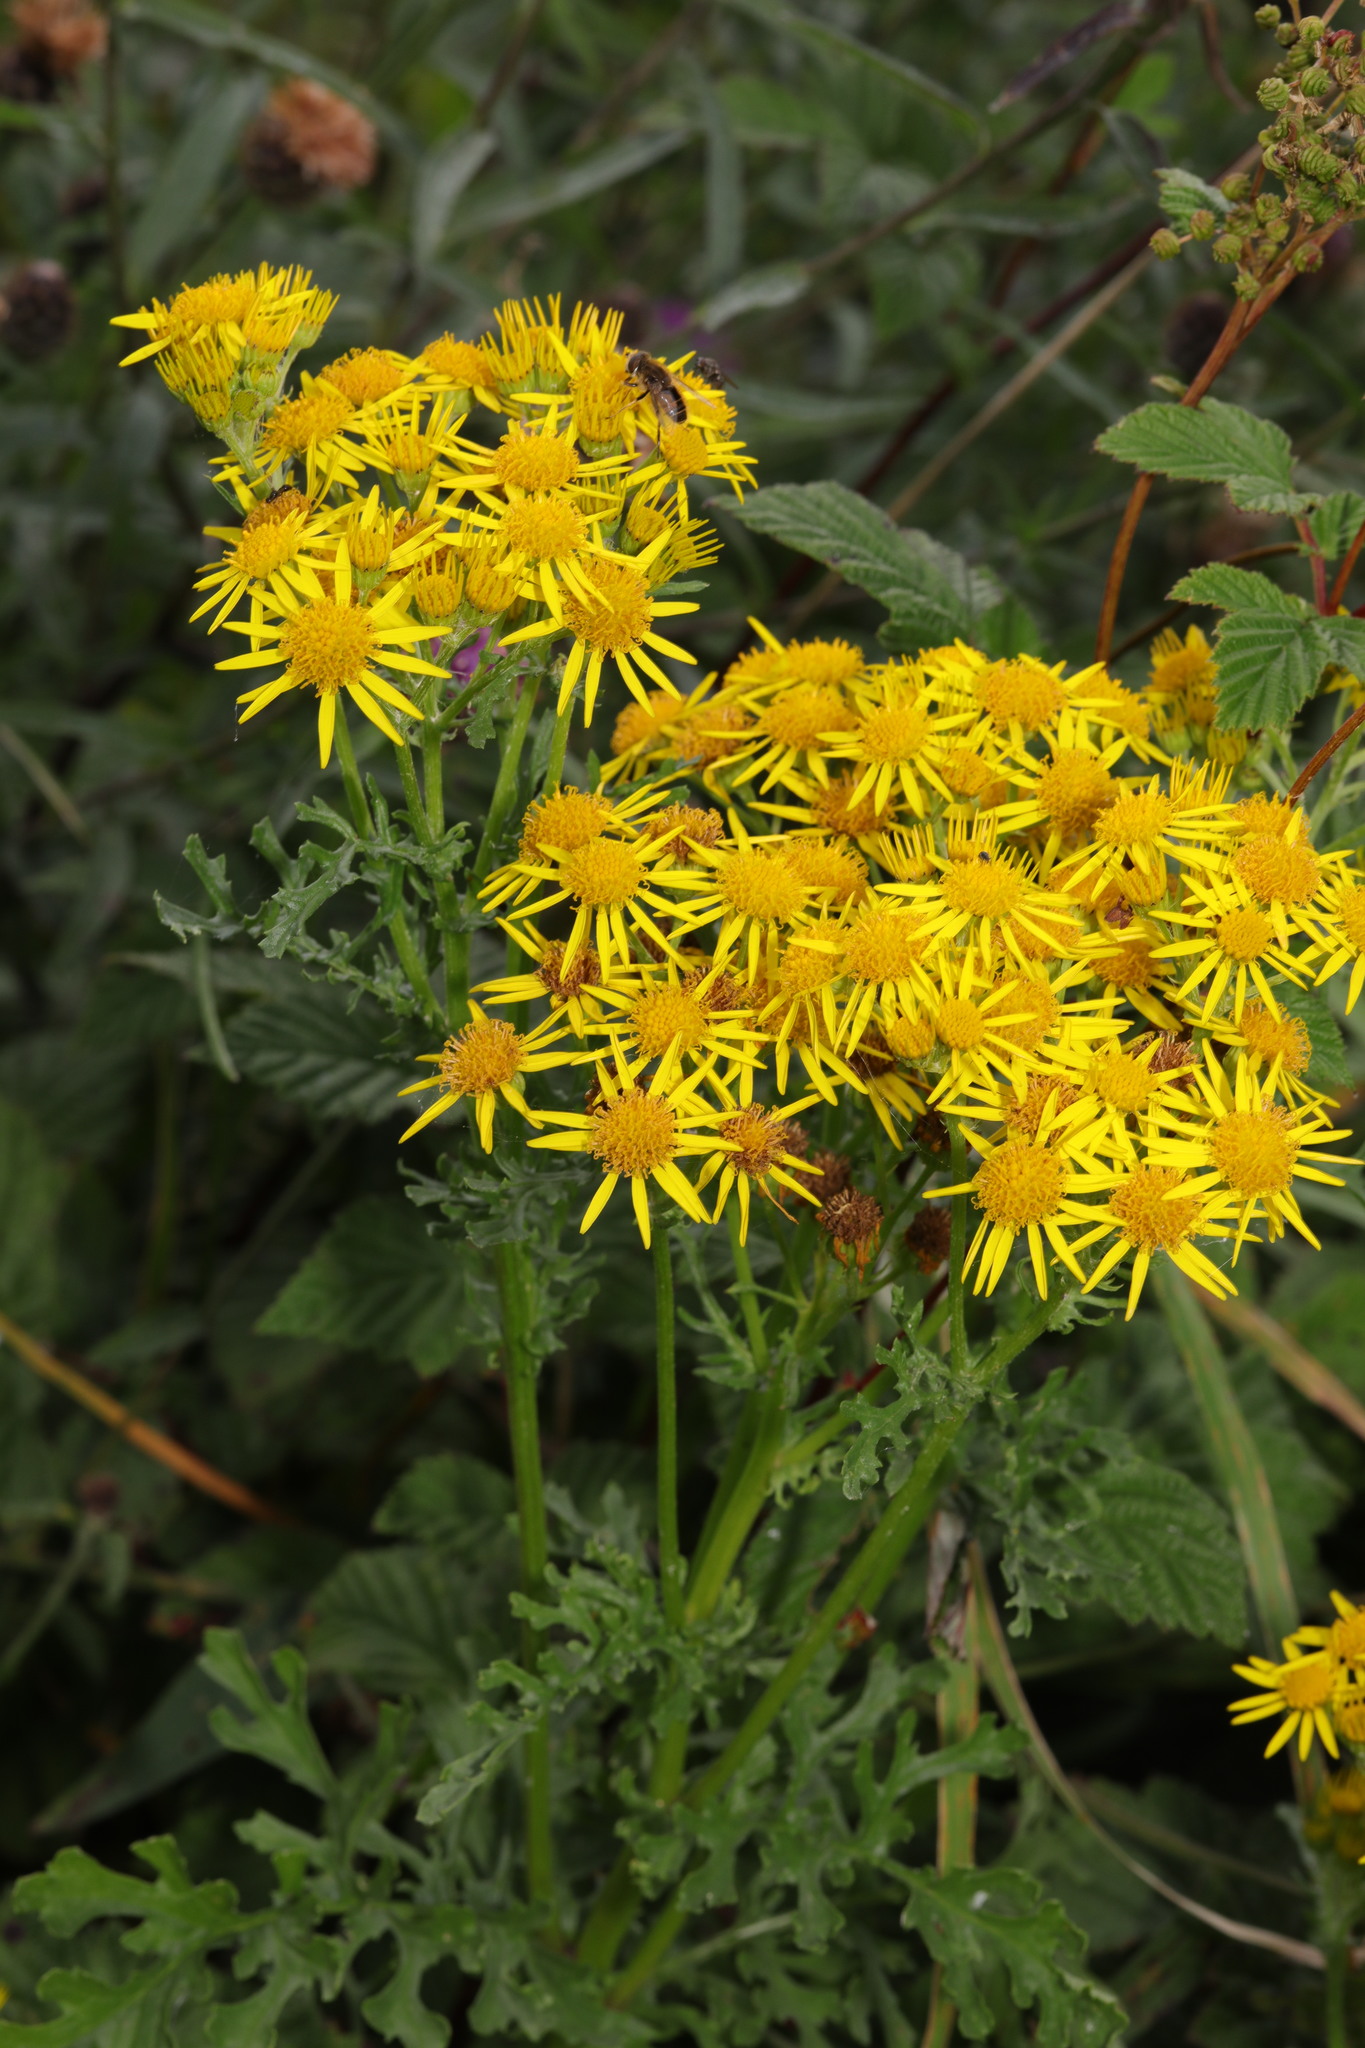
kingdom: Plantae
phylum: Tracheophyta
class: Magnoliopsida
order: Asterales
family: Asteraceae
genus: Jacobaea
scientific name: Jacobaea vulgaris
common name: Stinking willie
